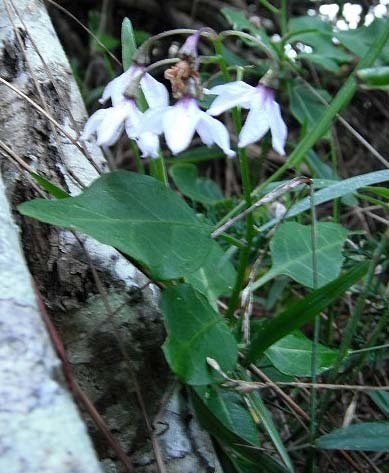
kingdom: Plantae
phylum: Tracheophyta
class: Magnoliopsida
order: Solanales
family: Solanaceae
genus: Solanum
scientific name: Solanum africanum
